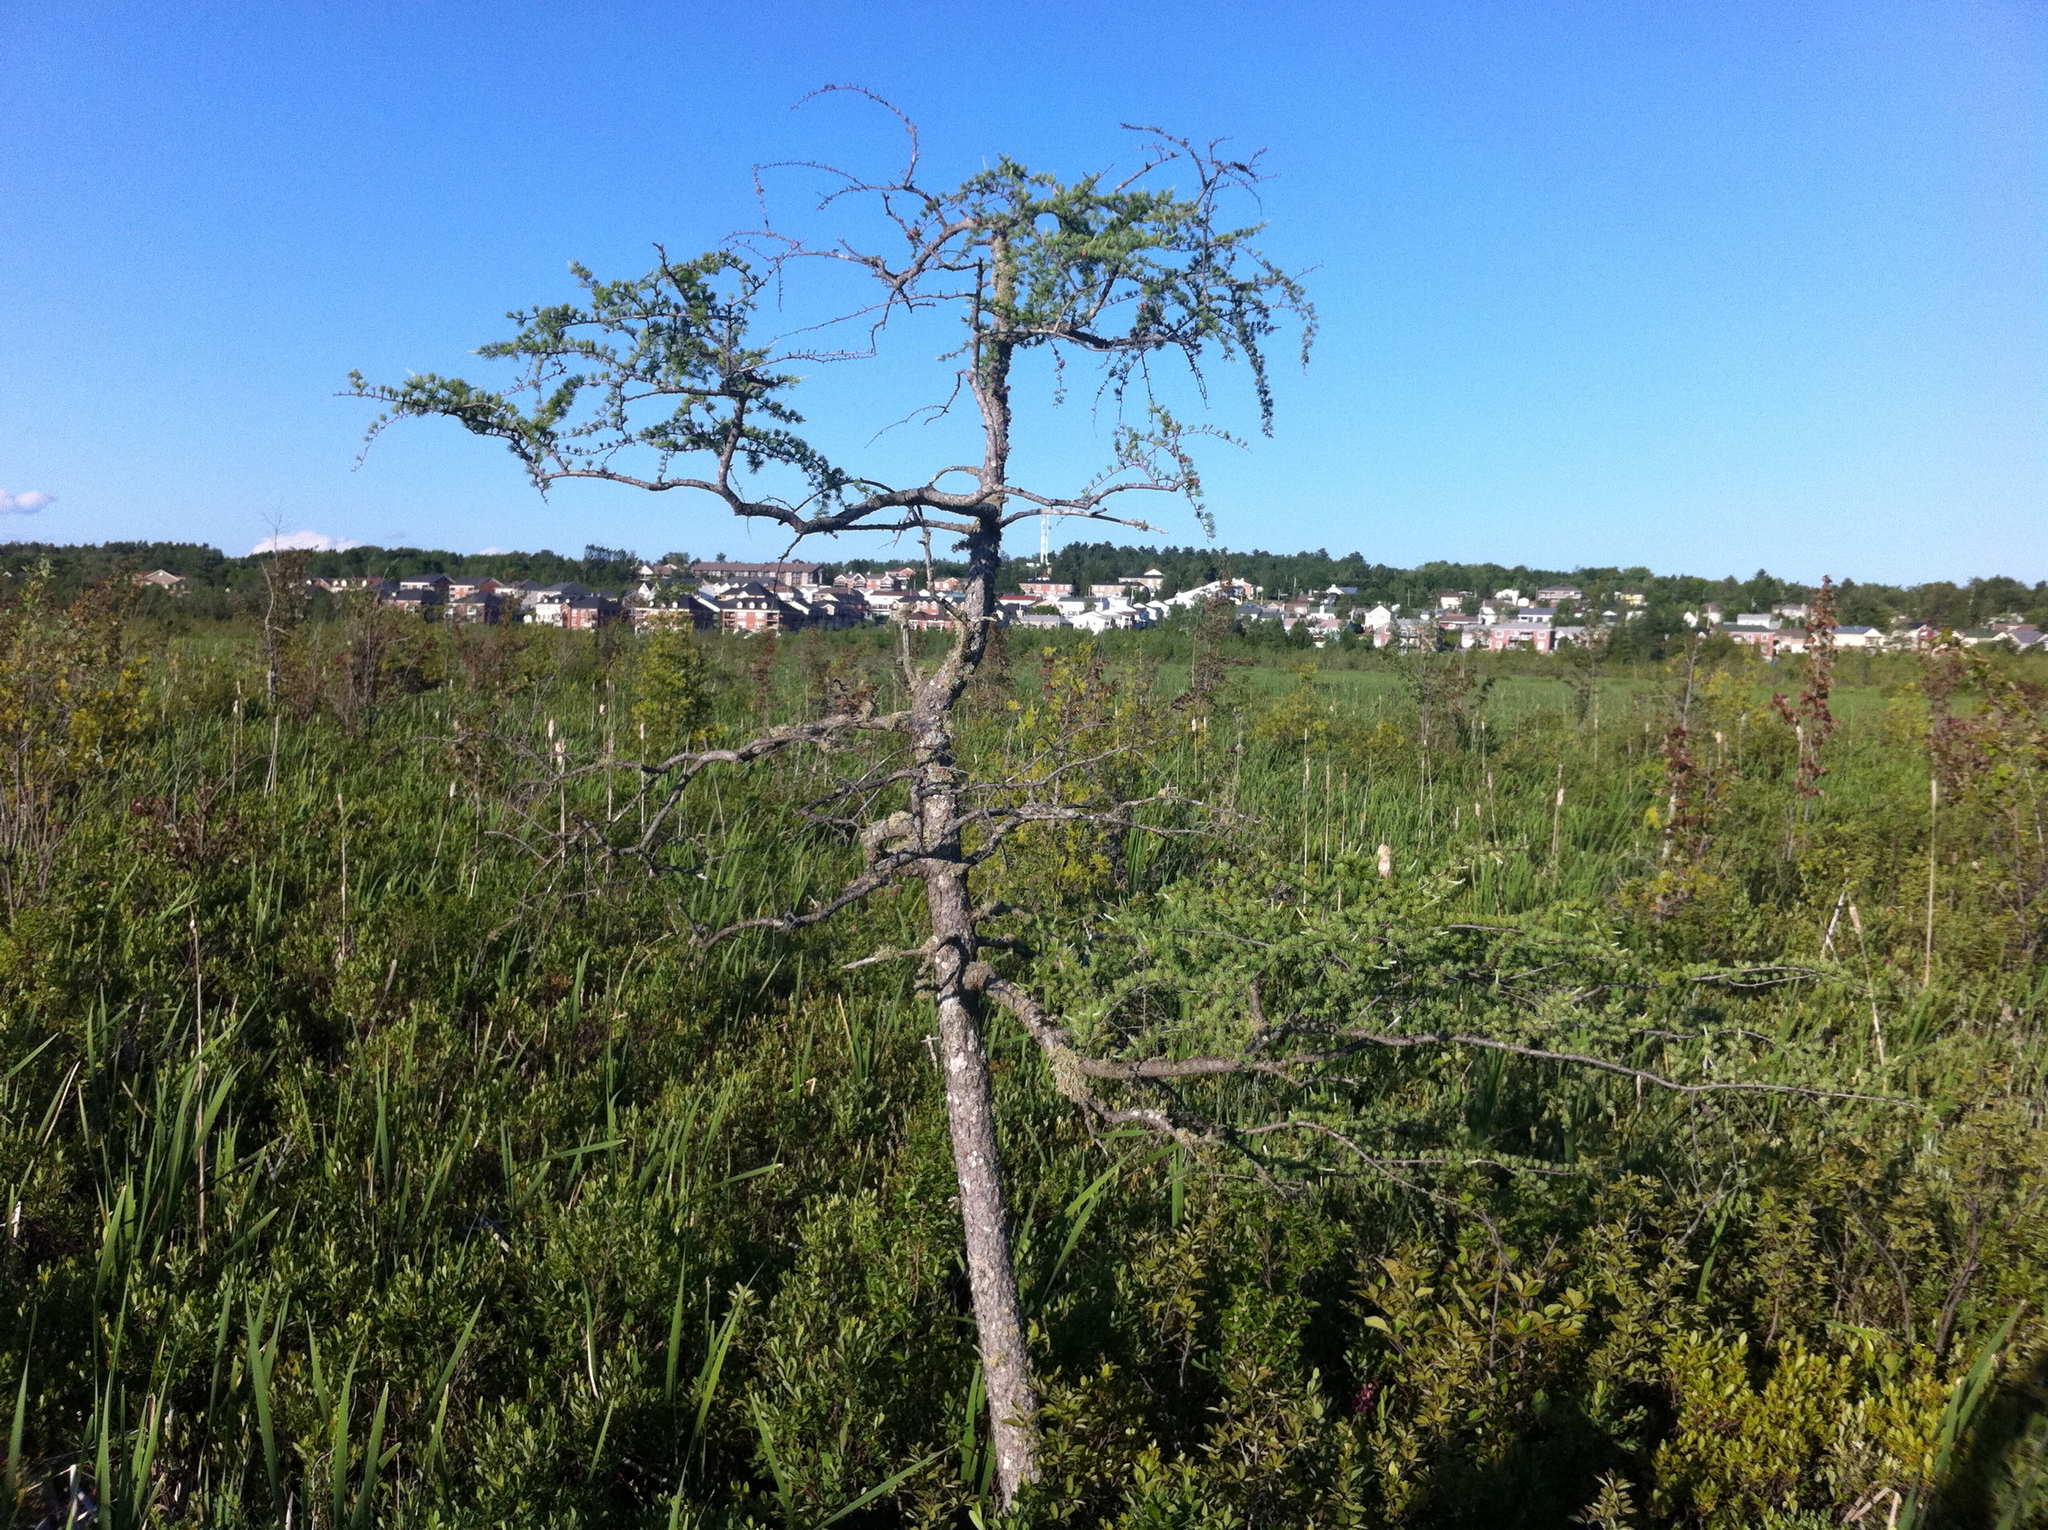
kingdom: Plantae
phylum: Tracheophyta
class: Magnoliopsida
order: Fagales
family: Myricaceae
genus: Myrica
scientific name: Myrica gale
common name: Sweet gale
